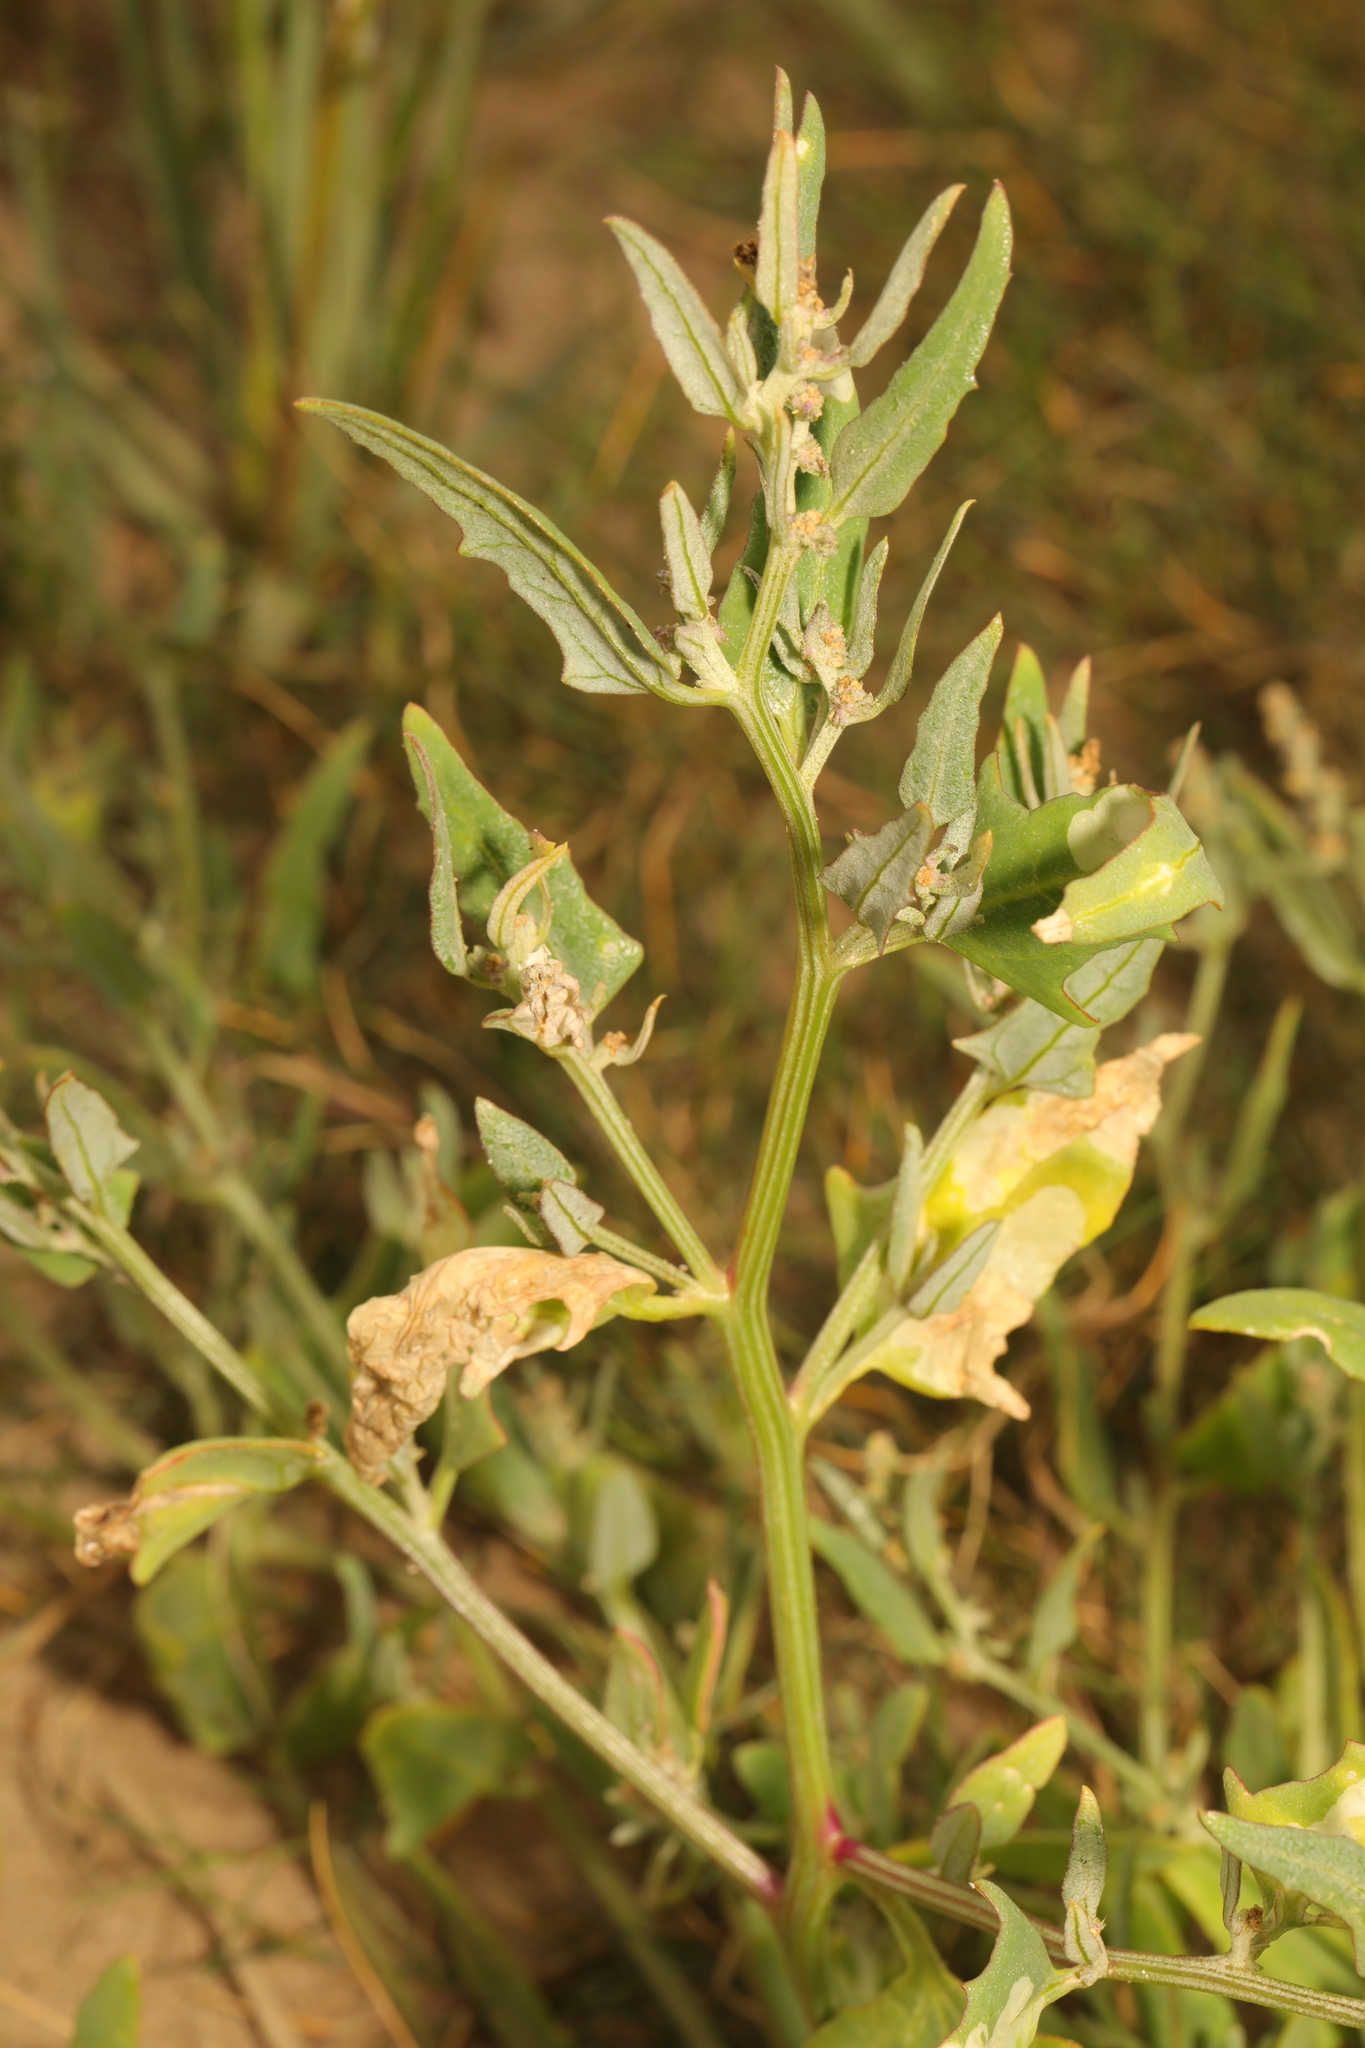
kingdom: Plantae
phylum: Tracheophyta
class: Magnoliopsida
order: Caryophyllales
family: Amaranthaceae
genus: Atriplex
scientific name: Atriplex patula
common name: Common orache
